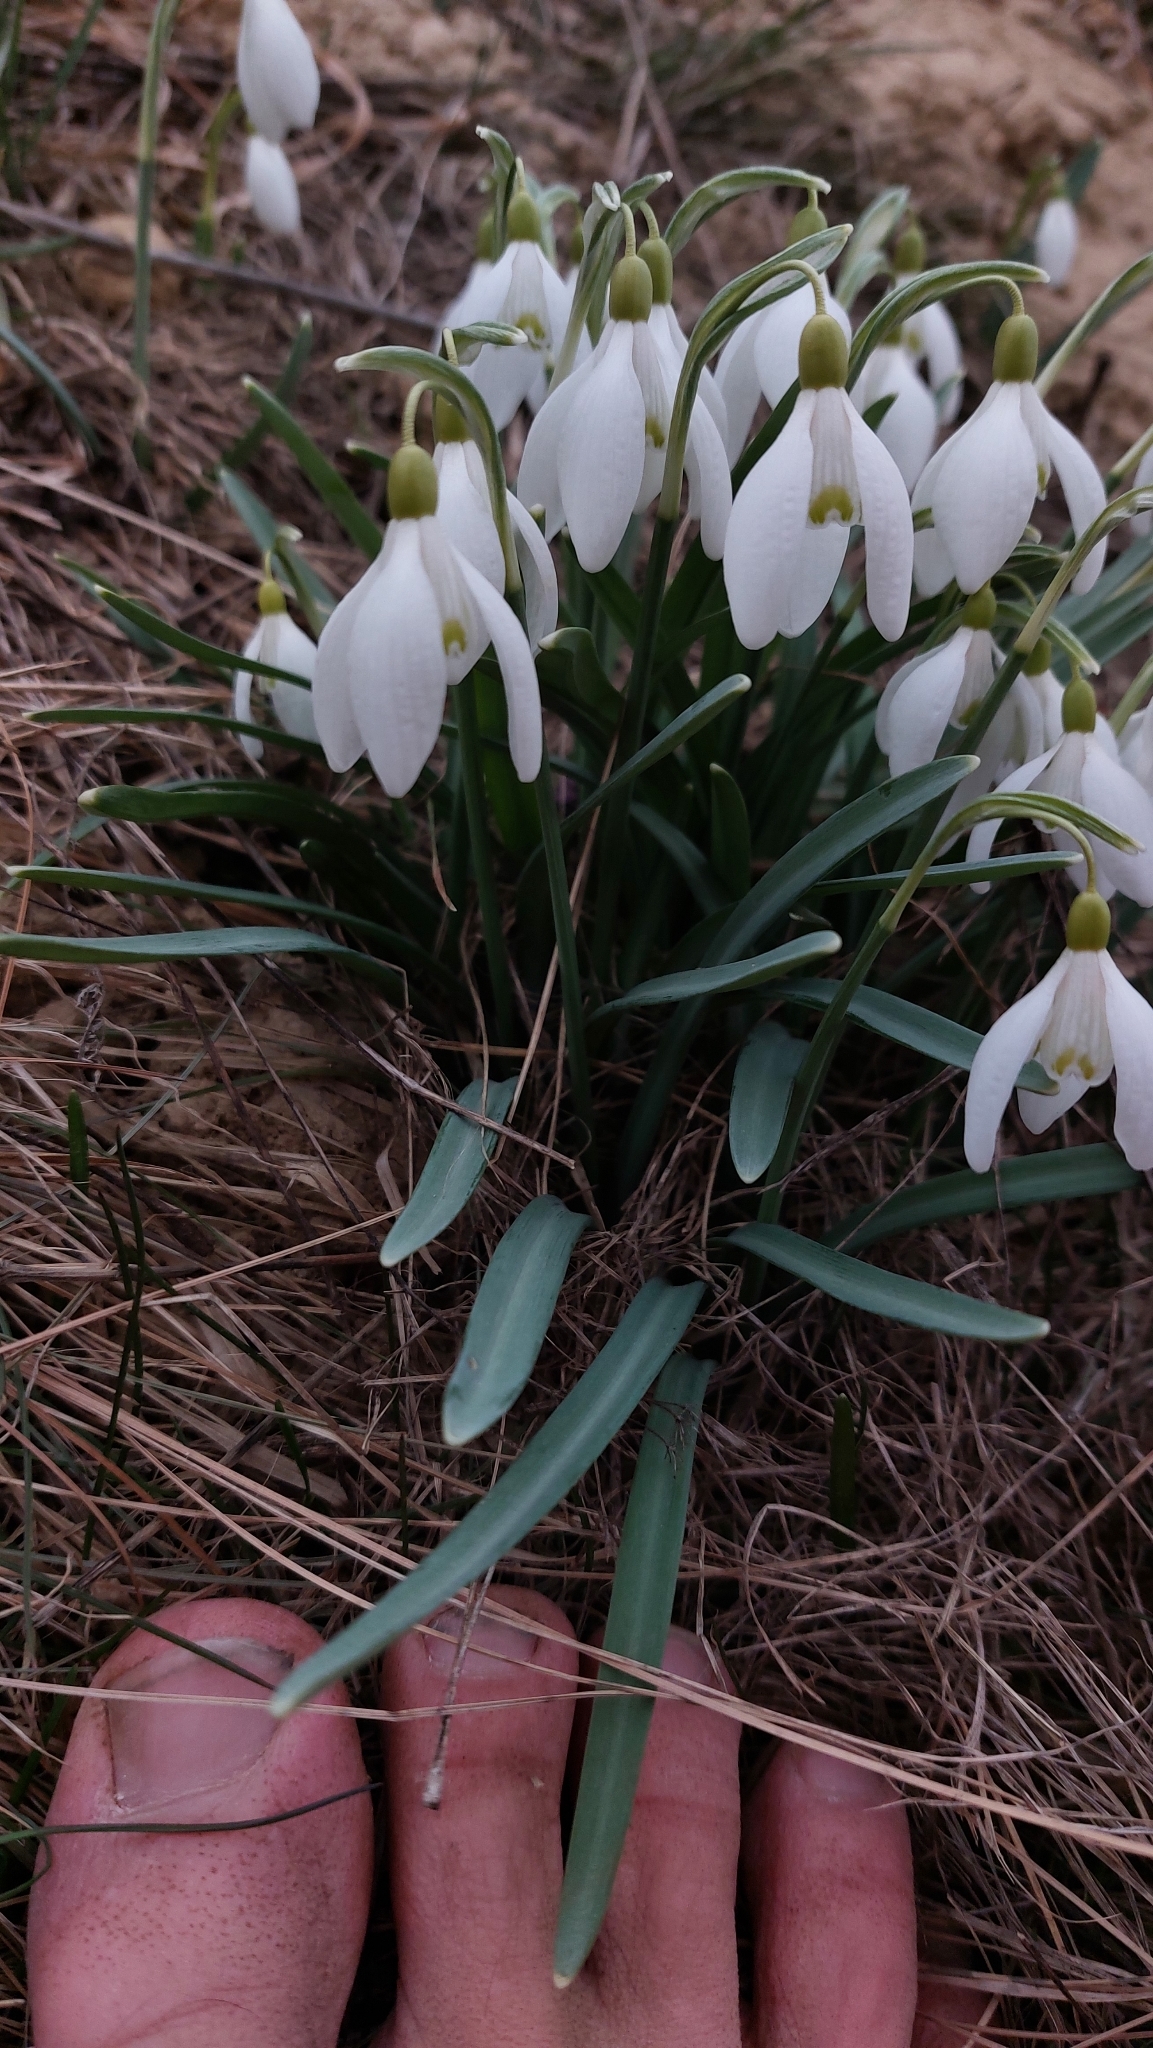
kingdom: Plantae
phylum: Tracheophyta
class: Liliopsida
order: Asparagales
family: Amaryllidaceae
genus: Galanthus
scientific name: Galanthus nivalis
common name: Snowdrop
